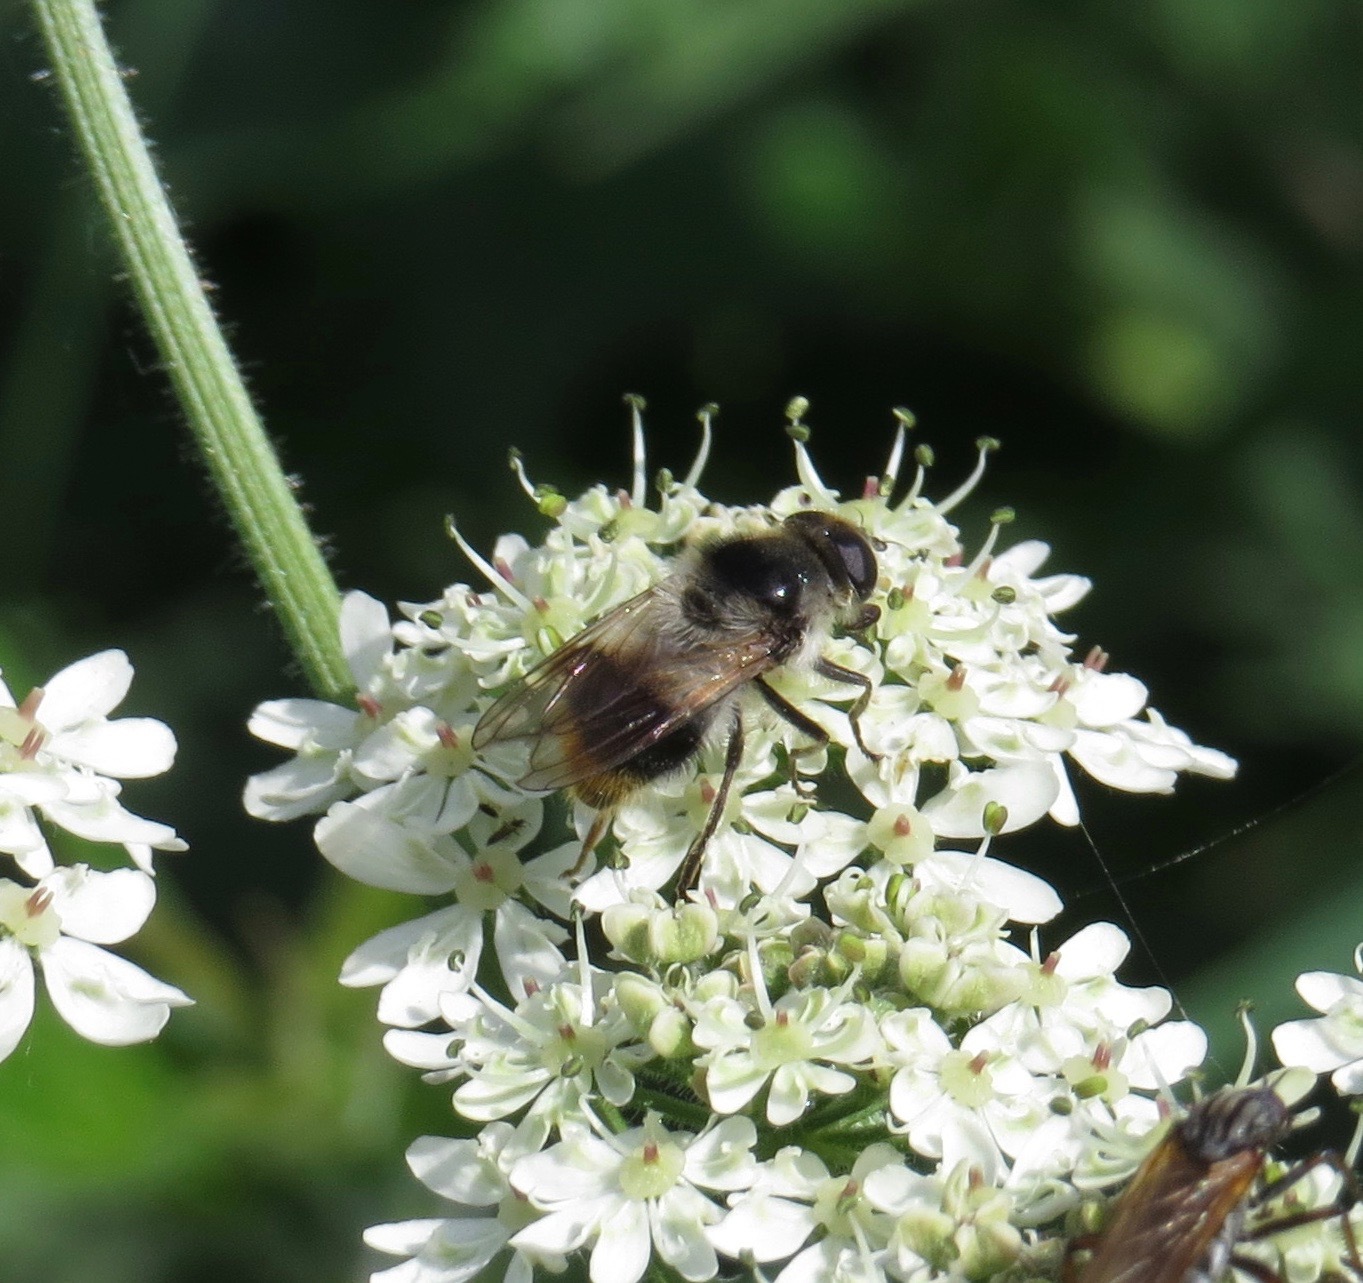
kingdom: Animalia
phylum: Arthropoda
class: Insecta
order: Diptera
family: Syrphidae
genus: Cheilosia
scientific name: Cheilosia illustrata
